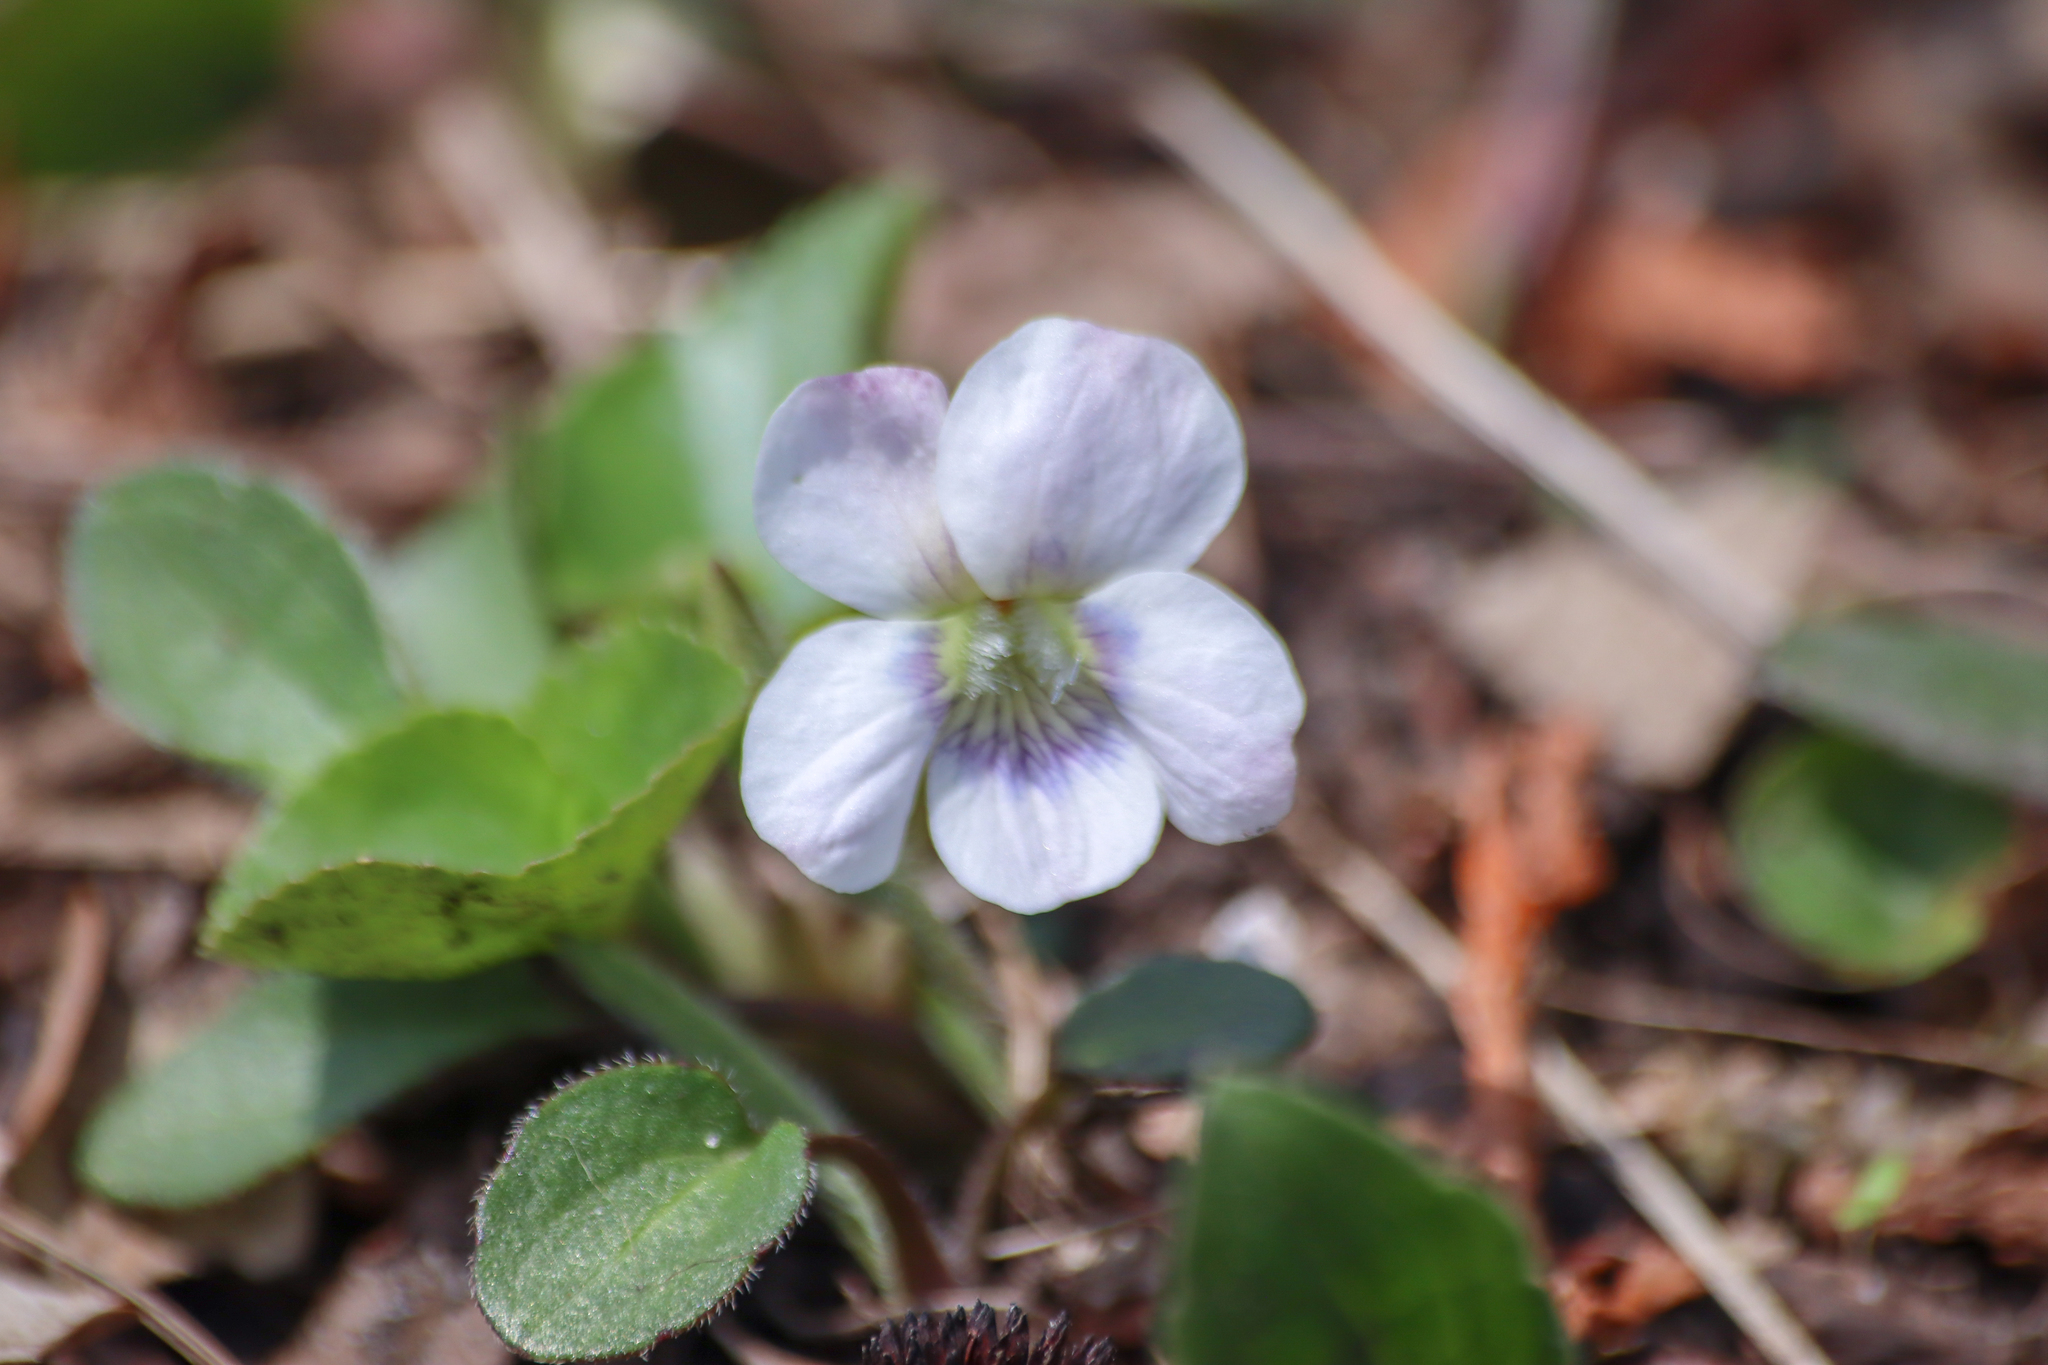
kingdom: Plantae
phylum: Tracheophyta
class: Magnoliopsida
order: Malpighiales
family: Violaceae
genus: Viola
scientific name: Viola sororia
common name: Dooryard violet
